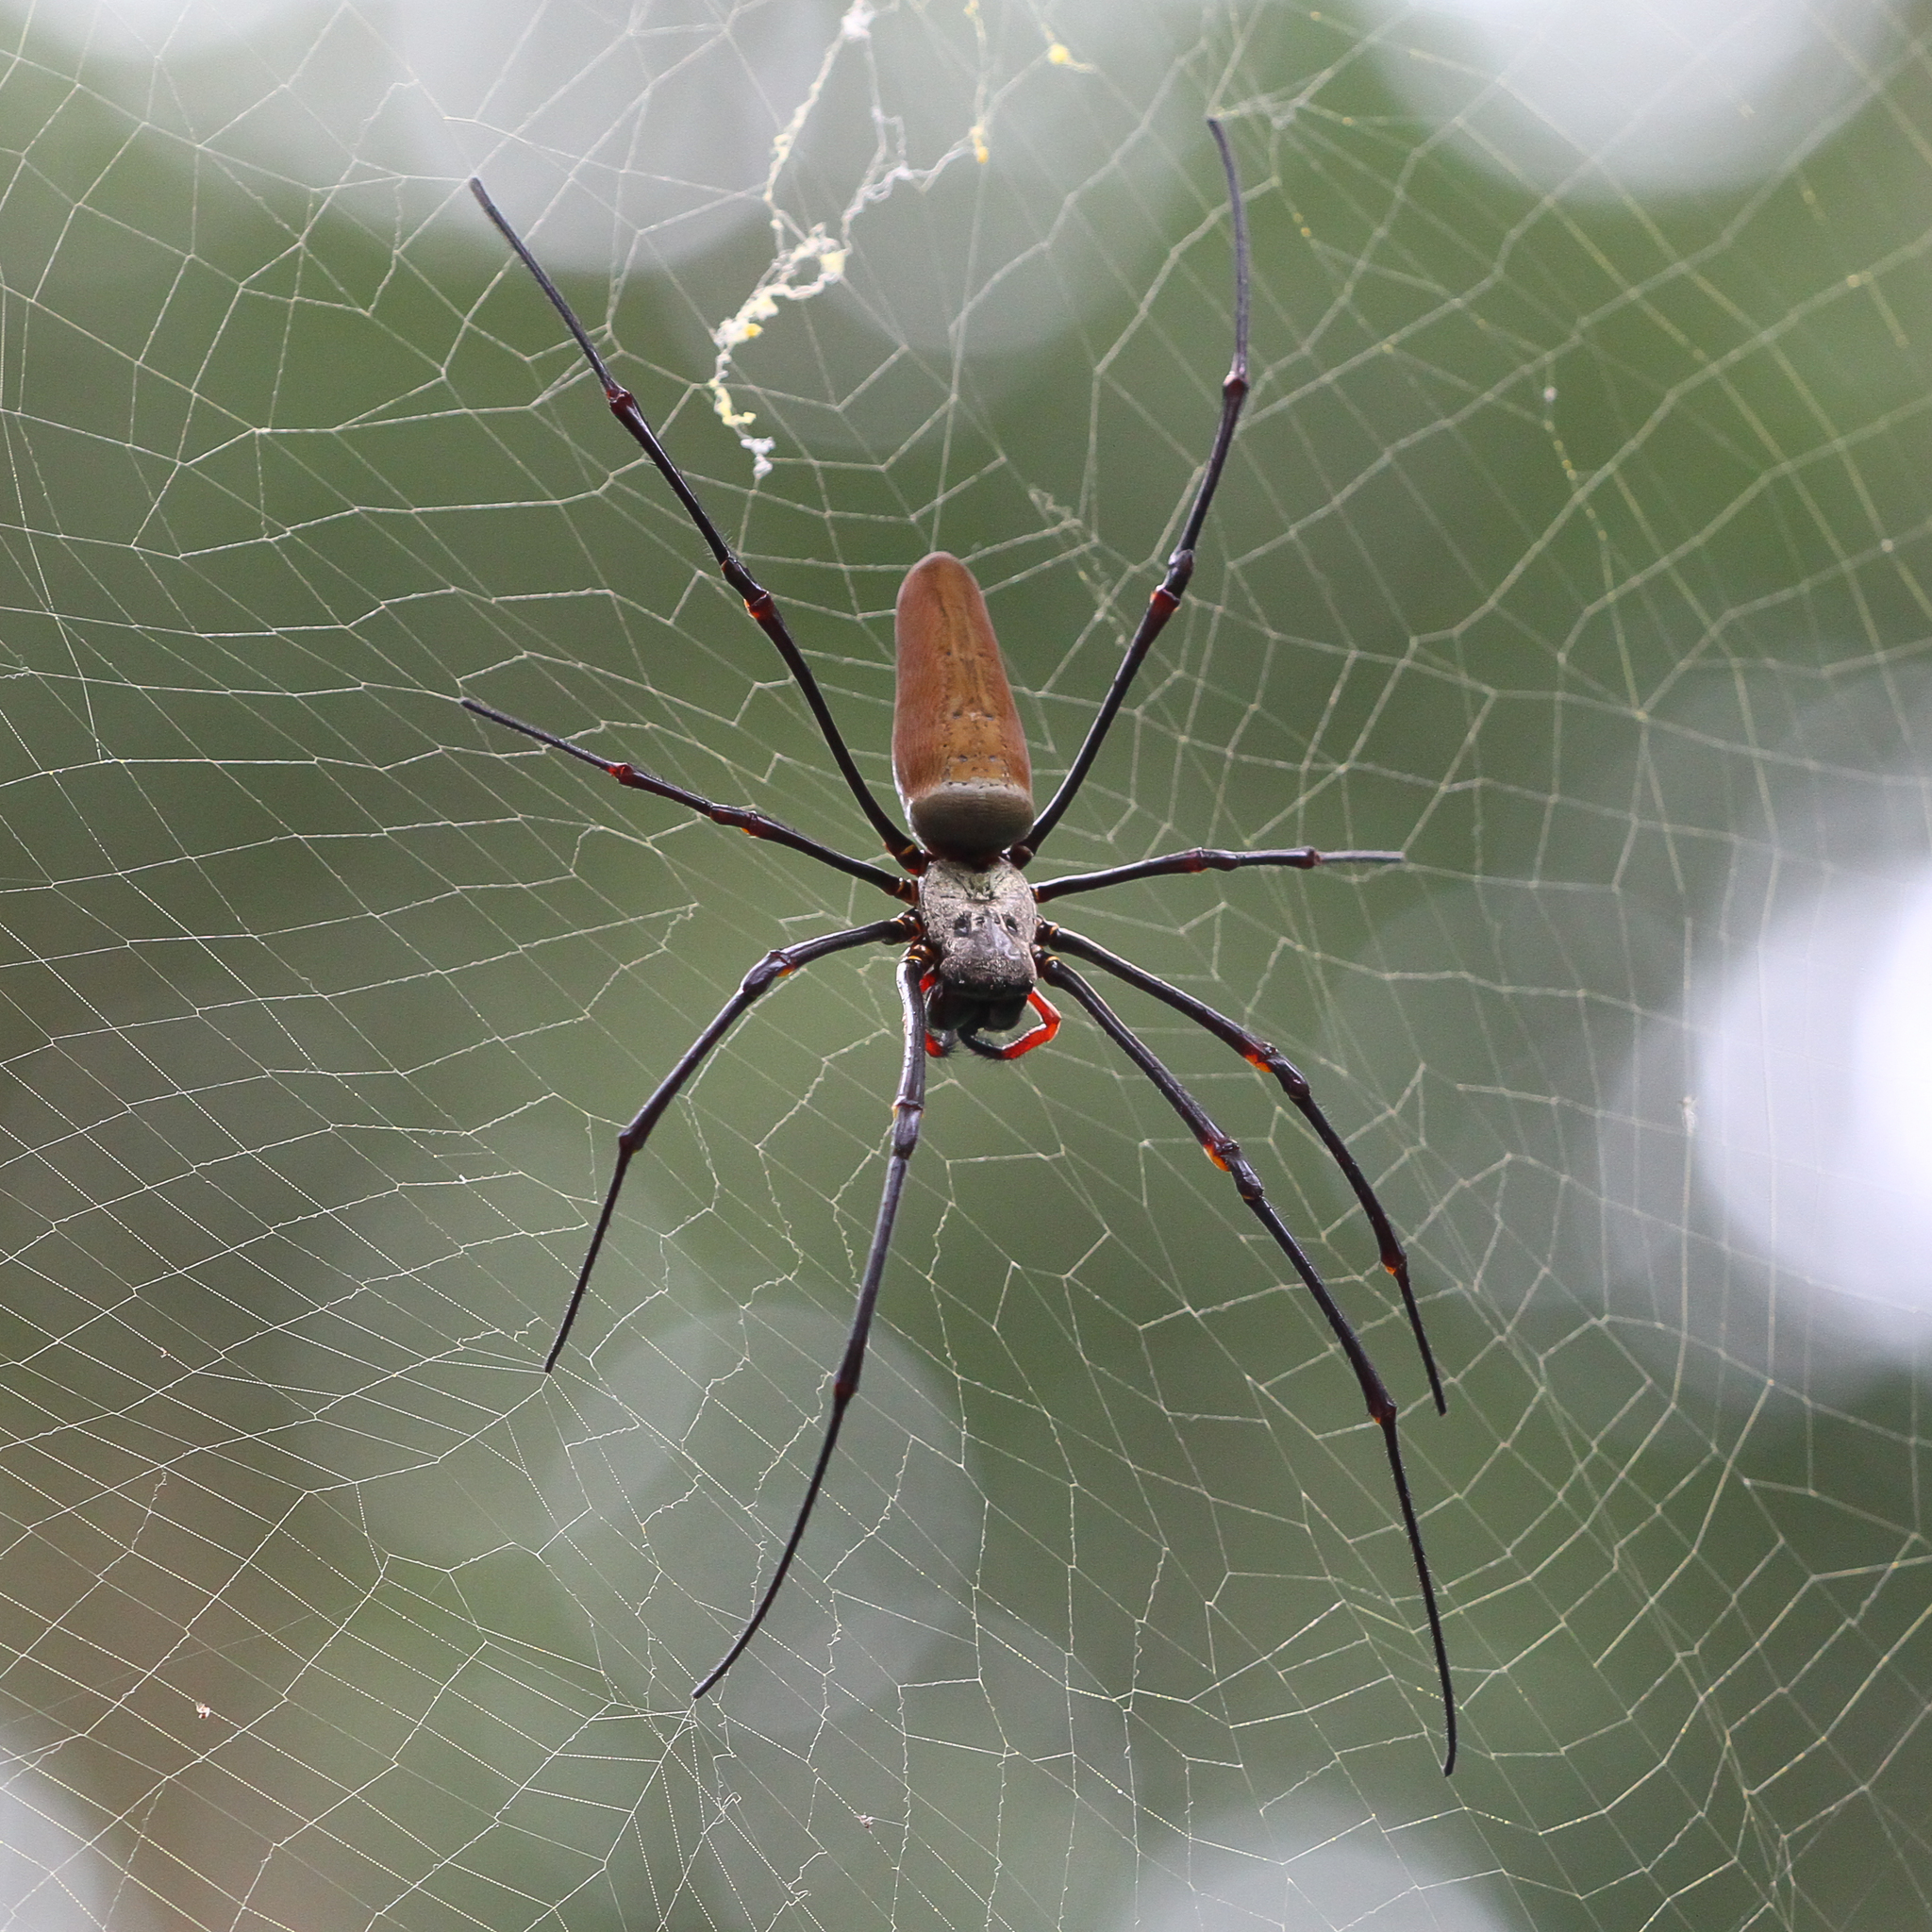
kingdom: Animalia
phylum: Arthropoda
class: Arachnida
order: Araneae
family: Araneidae
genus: Nephila
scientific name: Nephila pilipes
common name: Giant golden orb weaver
